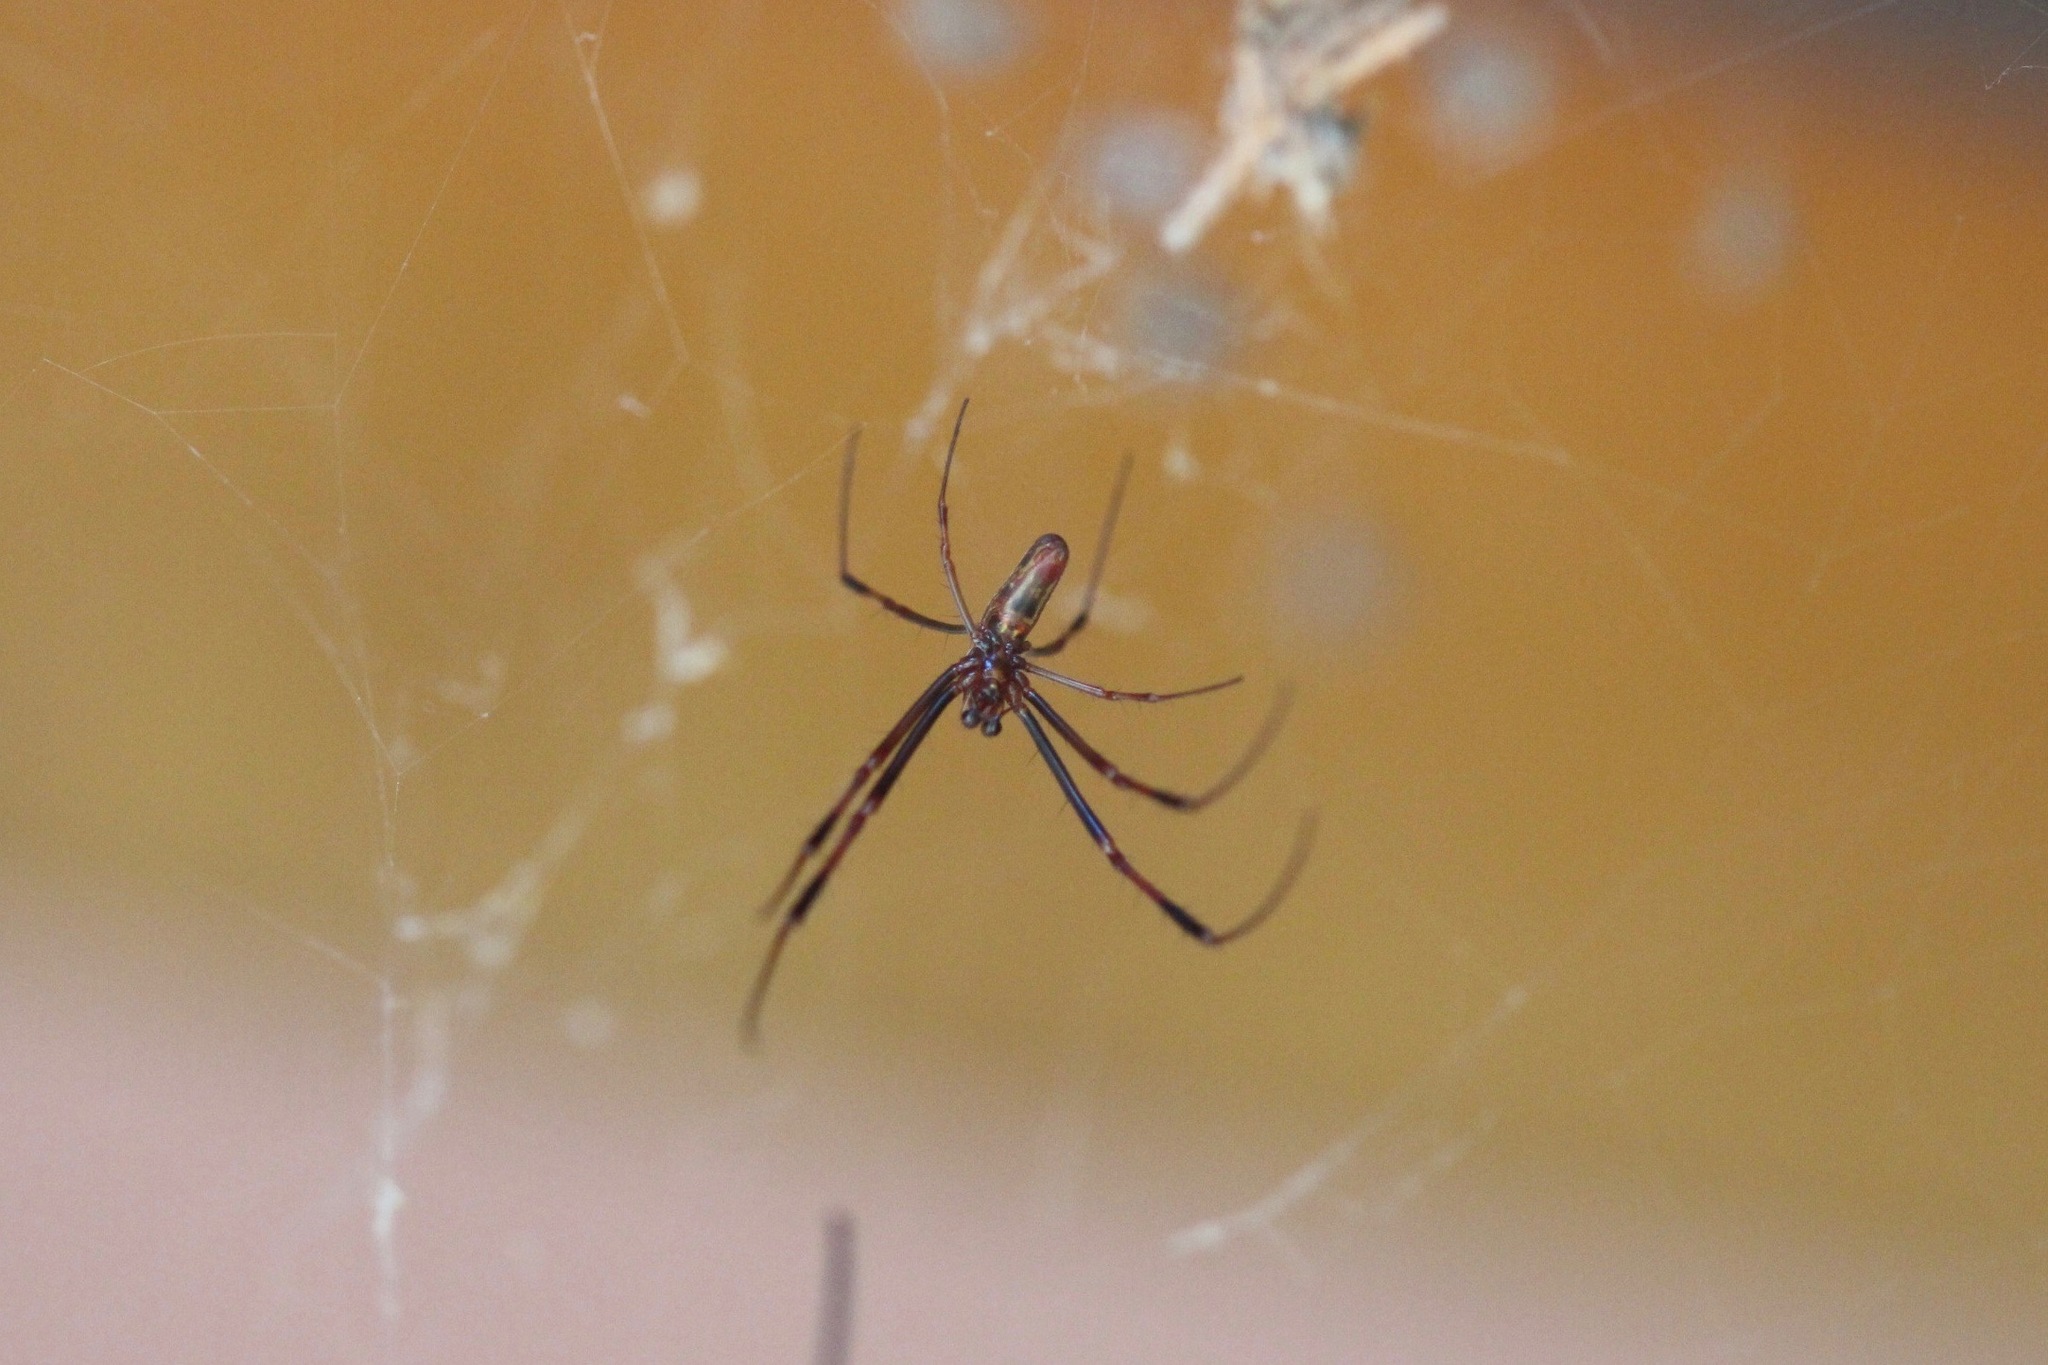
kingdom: Animalia
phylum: Arthropoda
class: Arachnida
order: Araneae
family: Araneidae
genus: Trichonephila
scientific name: Trichonephila clavipes
